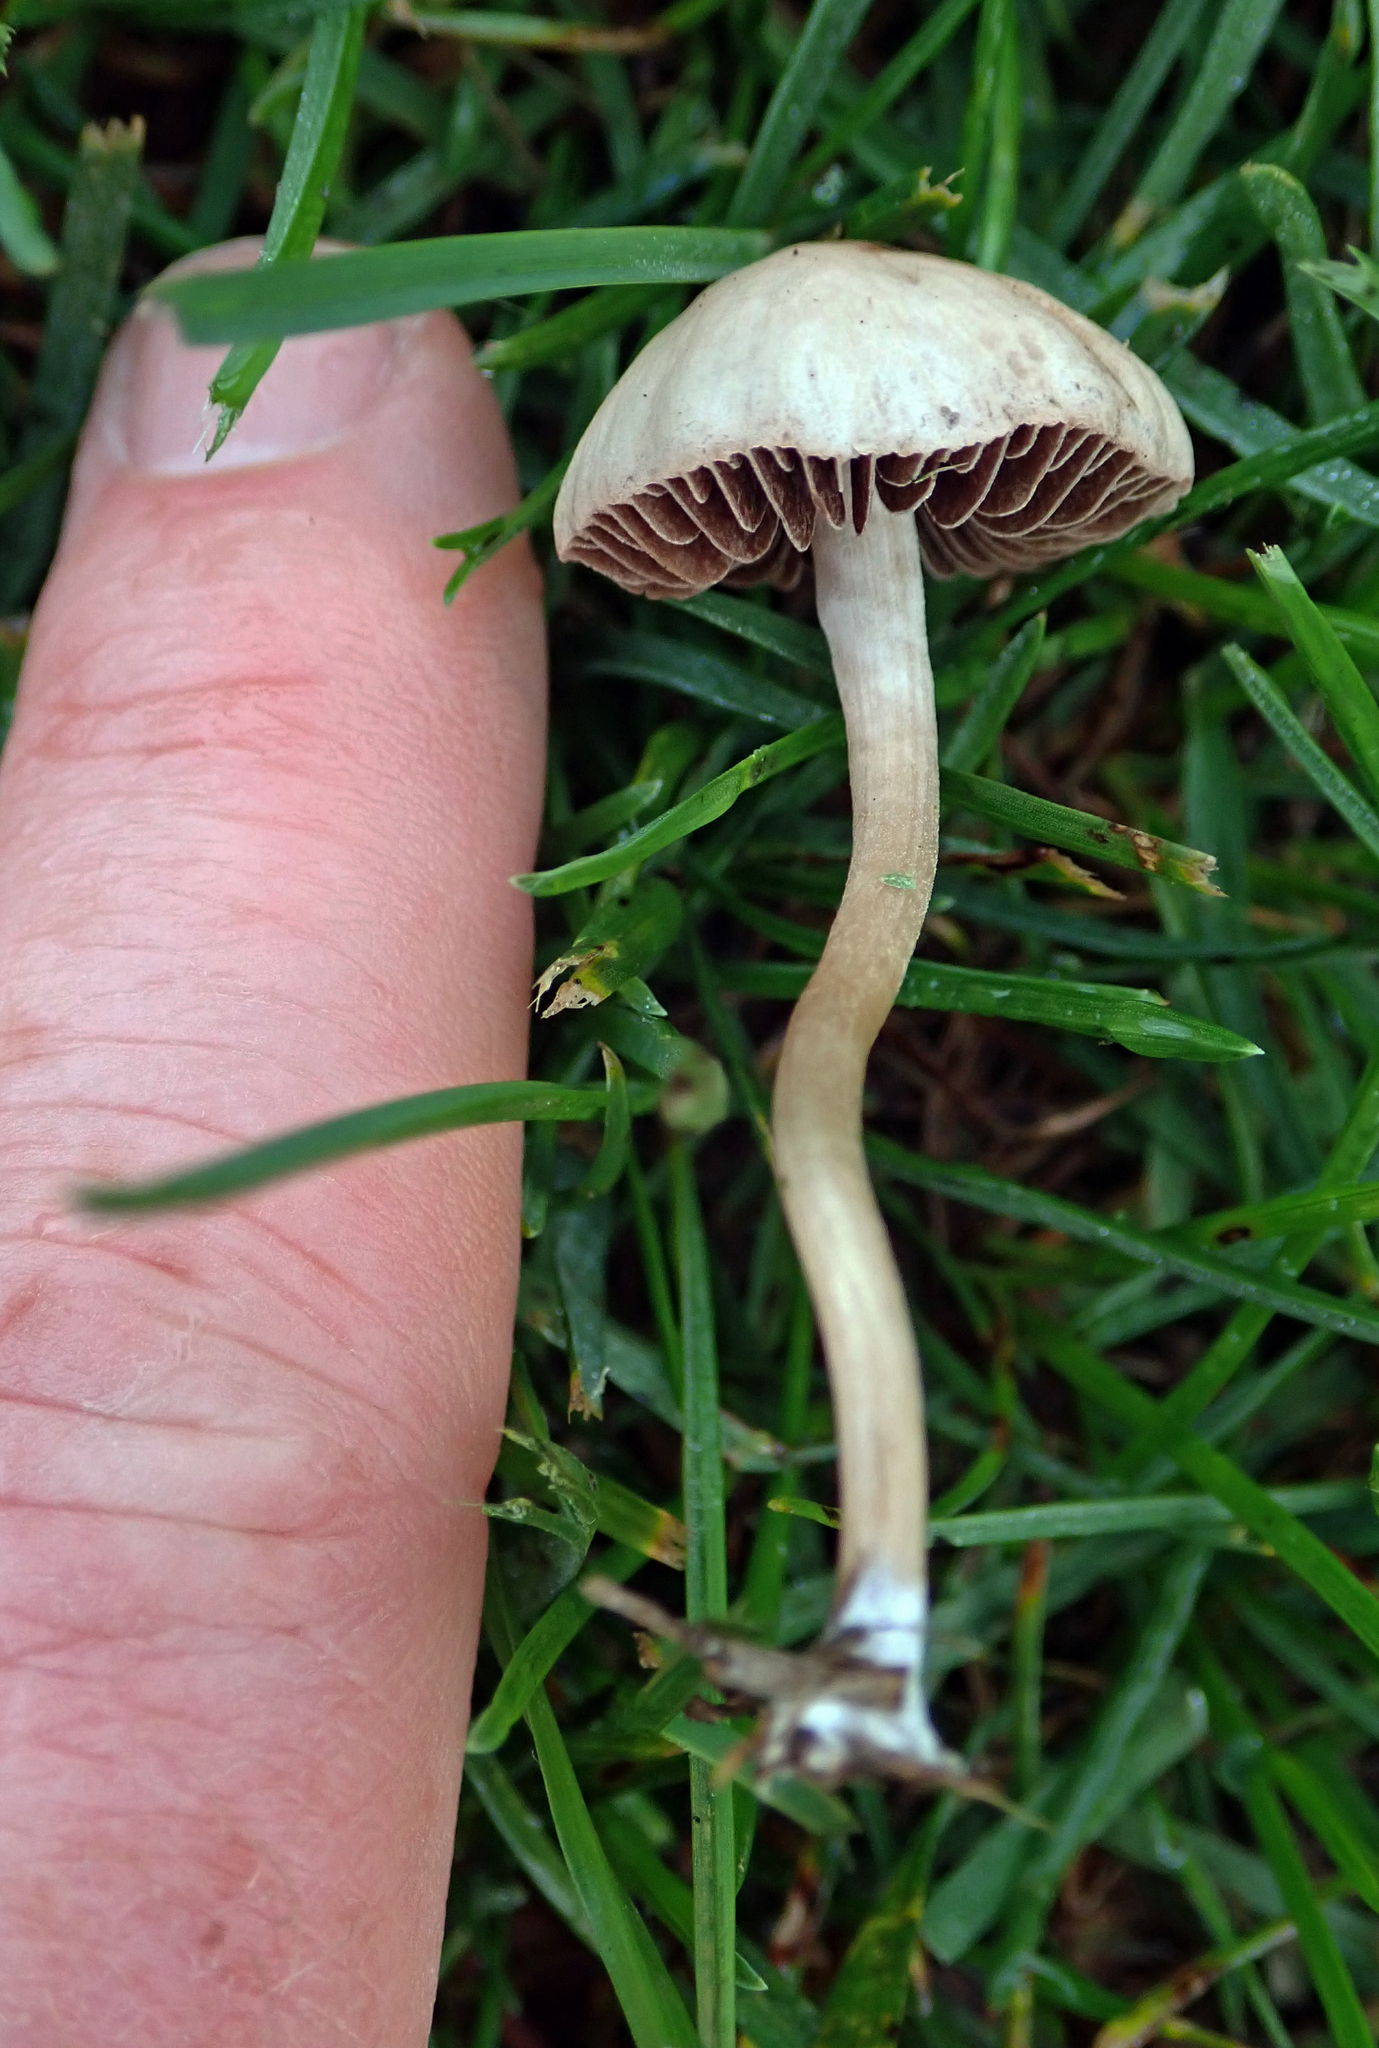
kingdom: Fungi
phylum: Basidiomycota
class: Agaricomycetes
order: Agaricales
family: Bolbitiaceae
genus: Panaeolina
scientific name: Panaeolina foenisecii
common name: Brown hay cap
